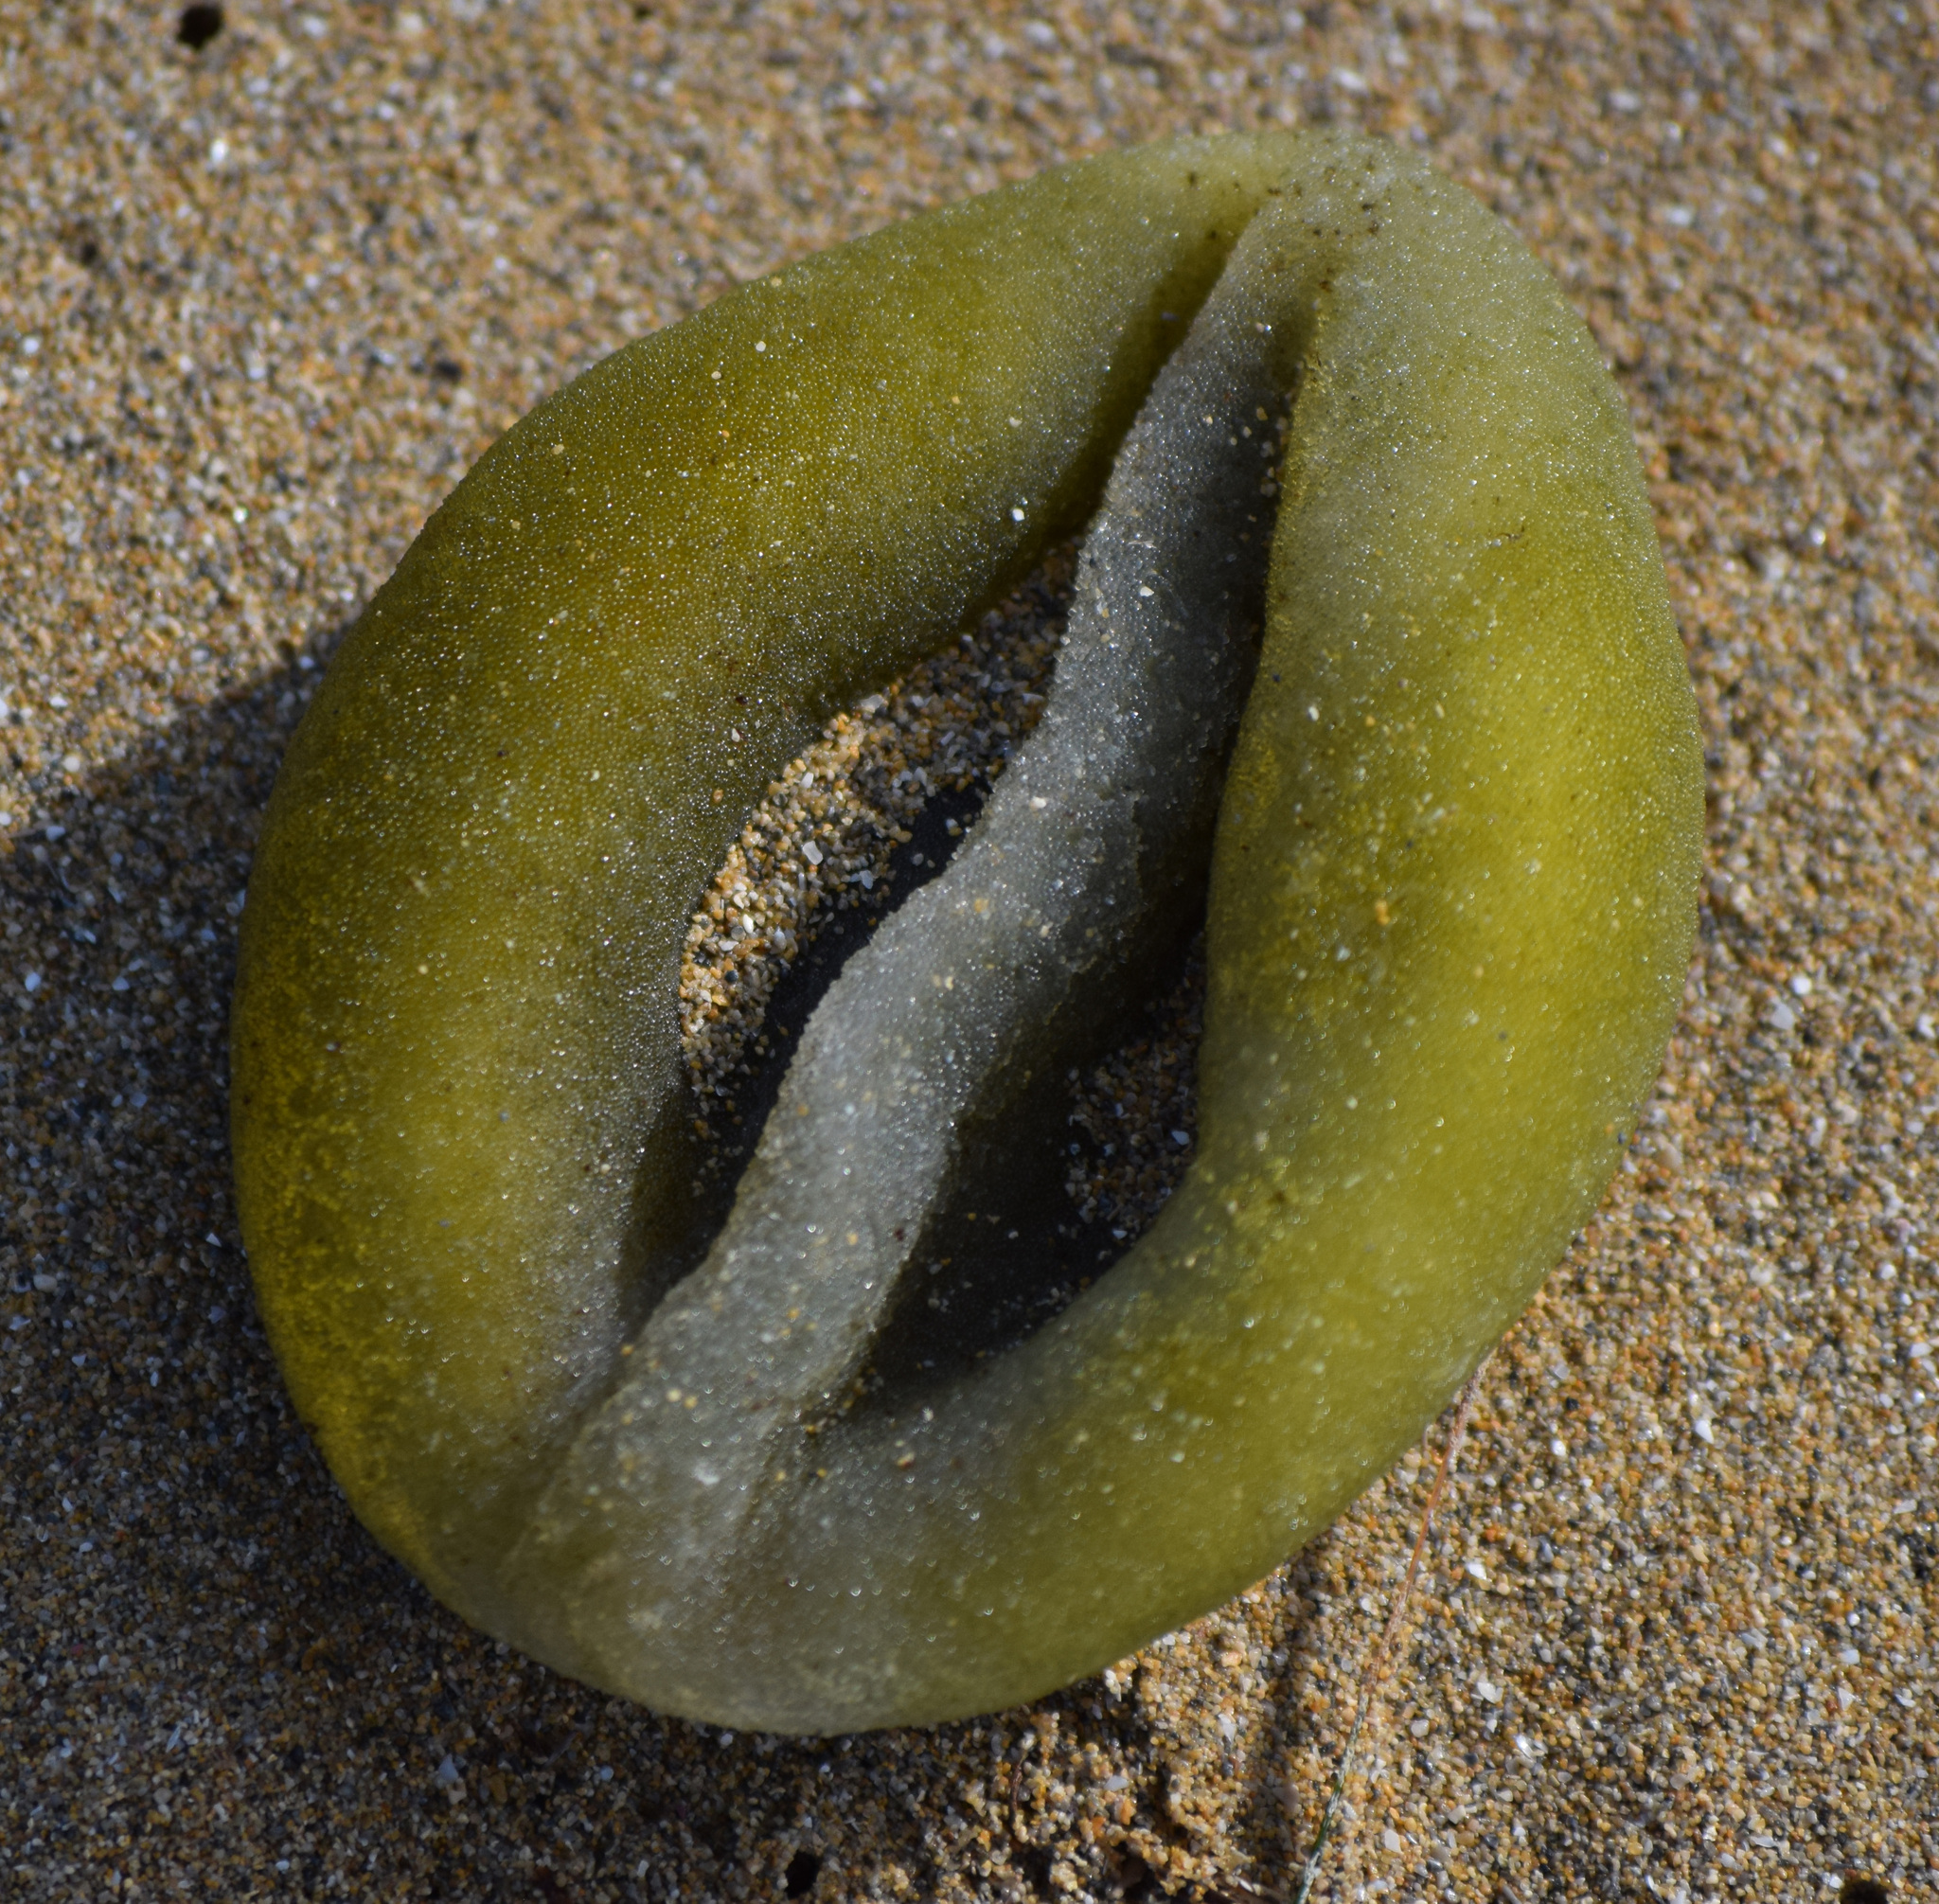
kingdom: Plantae
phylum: Chlorophyta
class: Ulvophyceae
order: Bryopsidales
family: Codiaceae
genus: Codium
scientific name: Codium bursa
